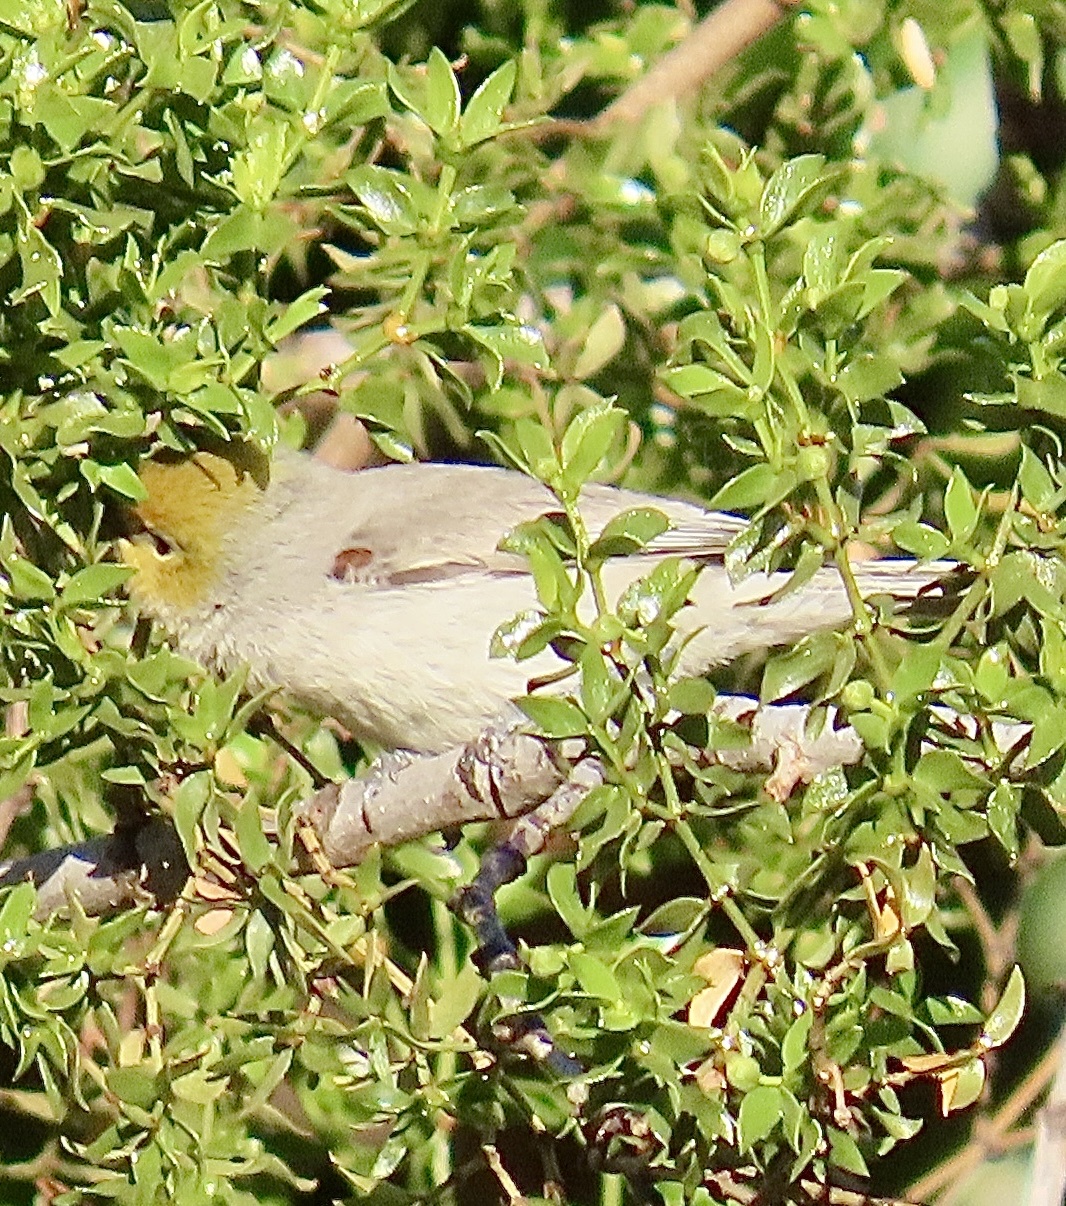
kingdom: Animalia
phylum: Chordata
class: Aves
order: Passeriformes
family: Remizidae
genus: Auriparus
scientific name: Auriparus flaviceps
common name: Verdin
